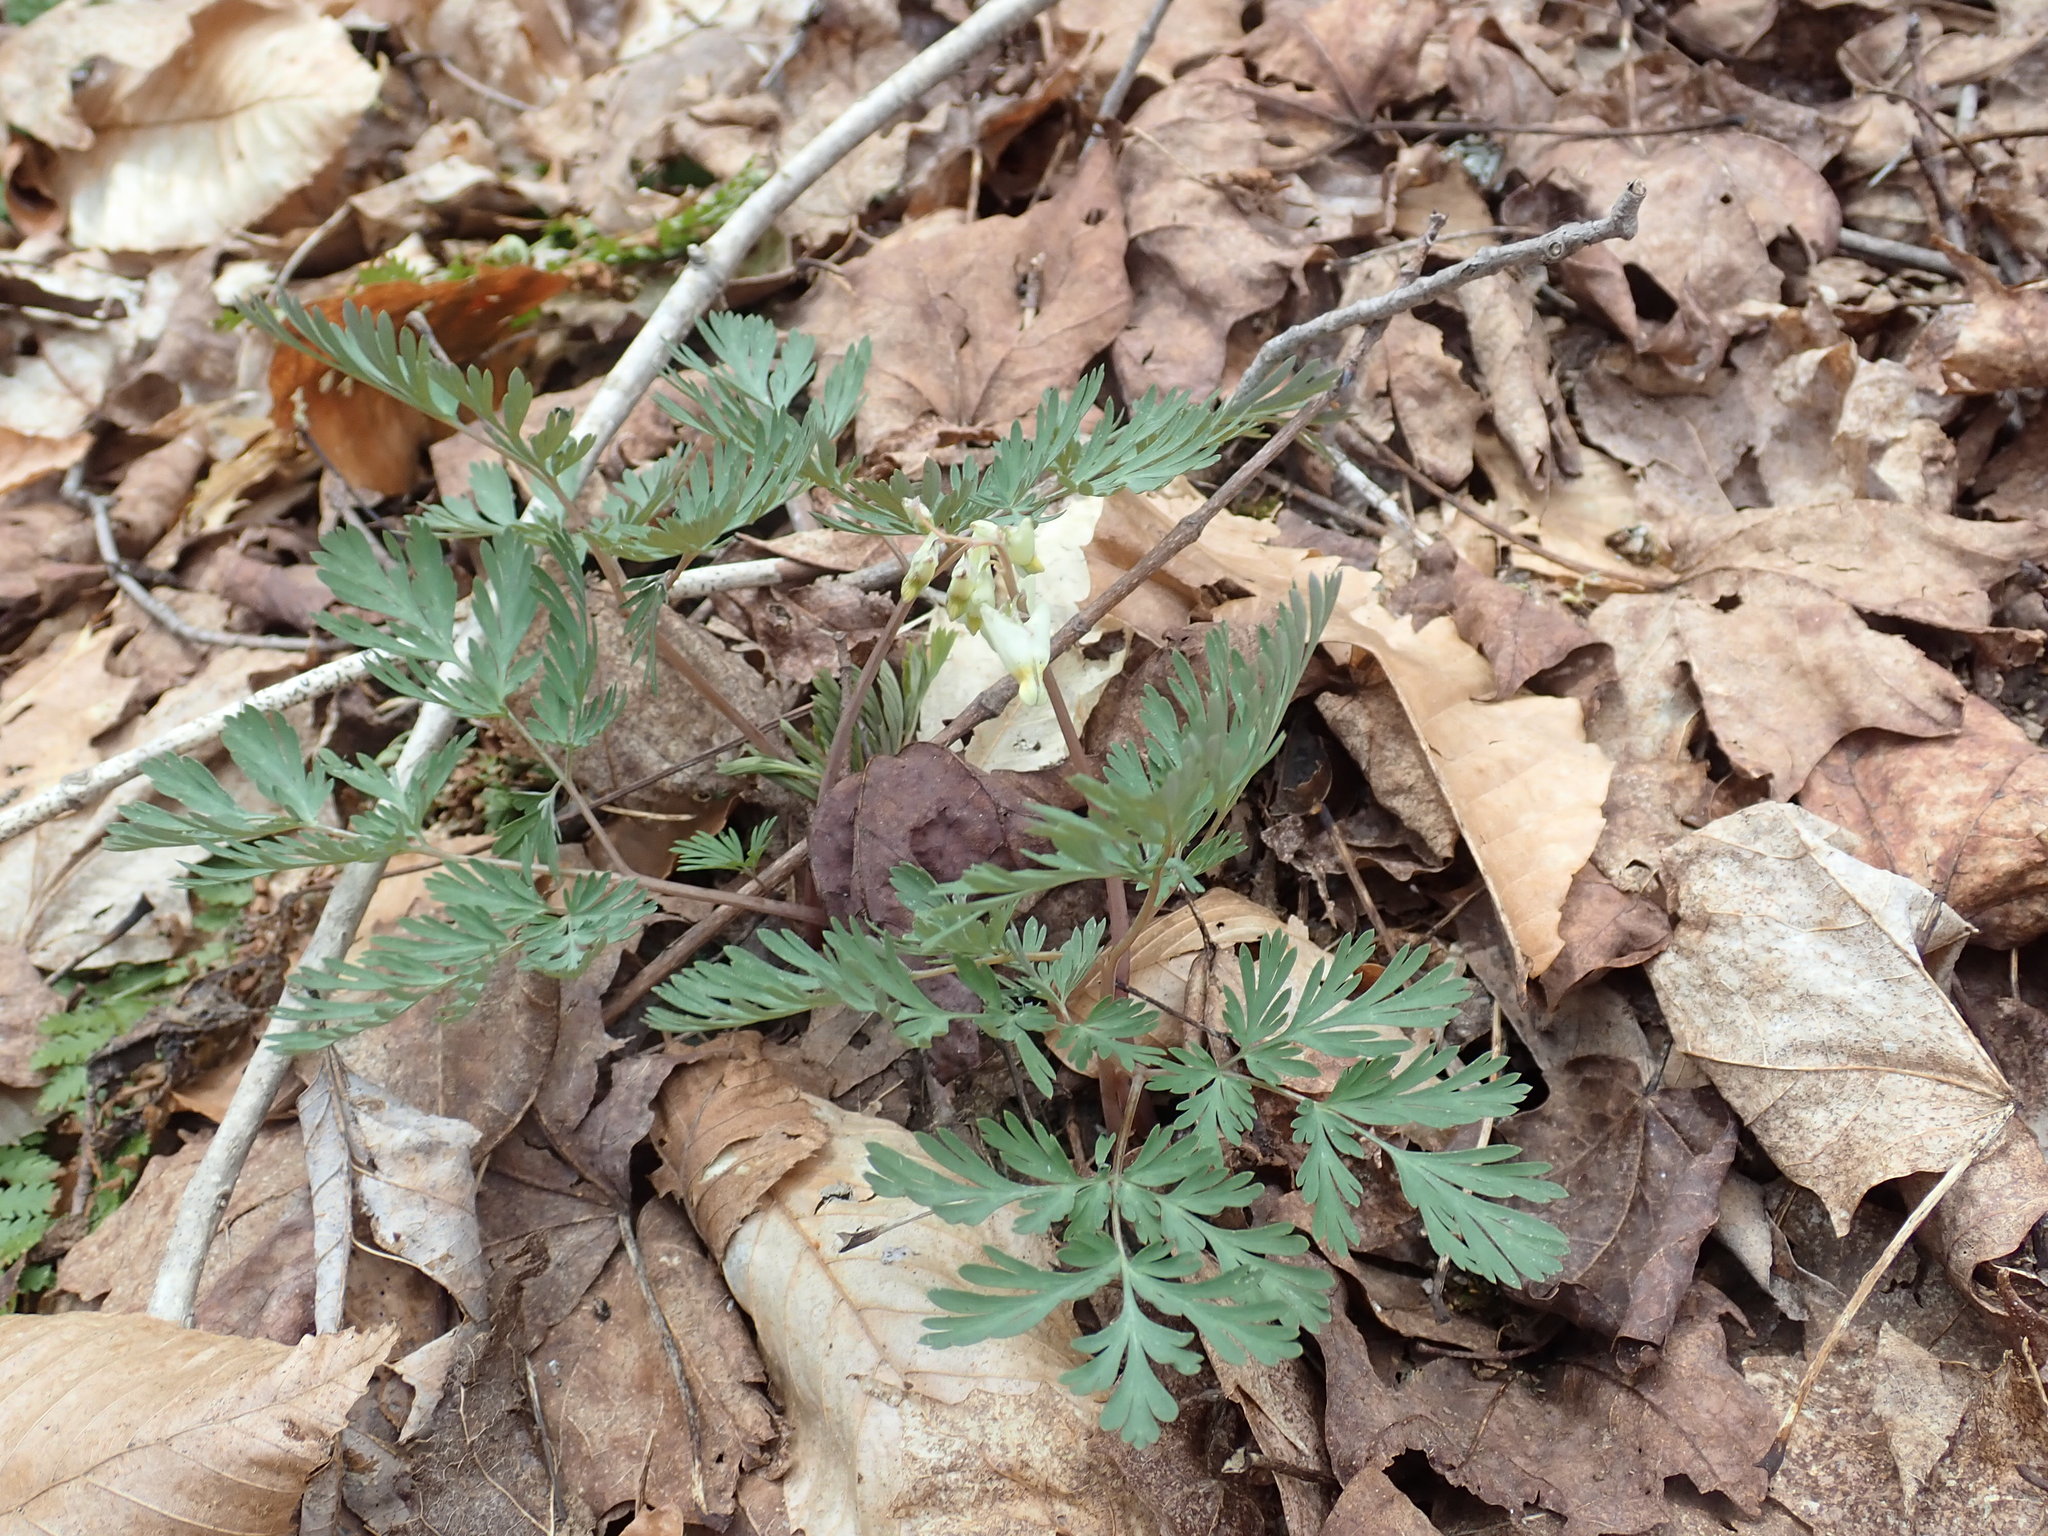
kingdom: Plantae
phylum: Tracheophyta
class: Magnoliopsida
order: Ranunculales
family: Papaveraceae
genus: Dicentra
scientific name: Dicentra cucullaria
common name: Dutchman's breeches
